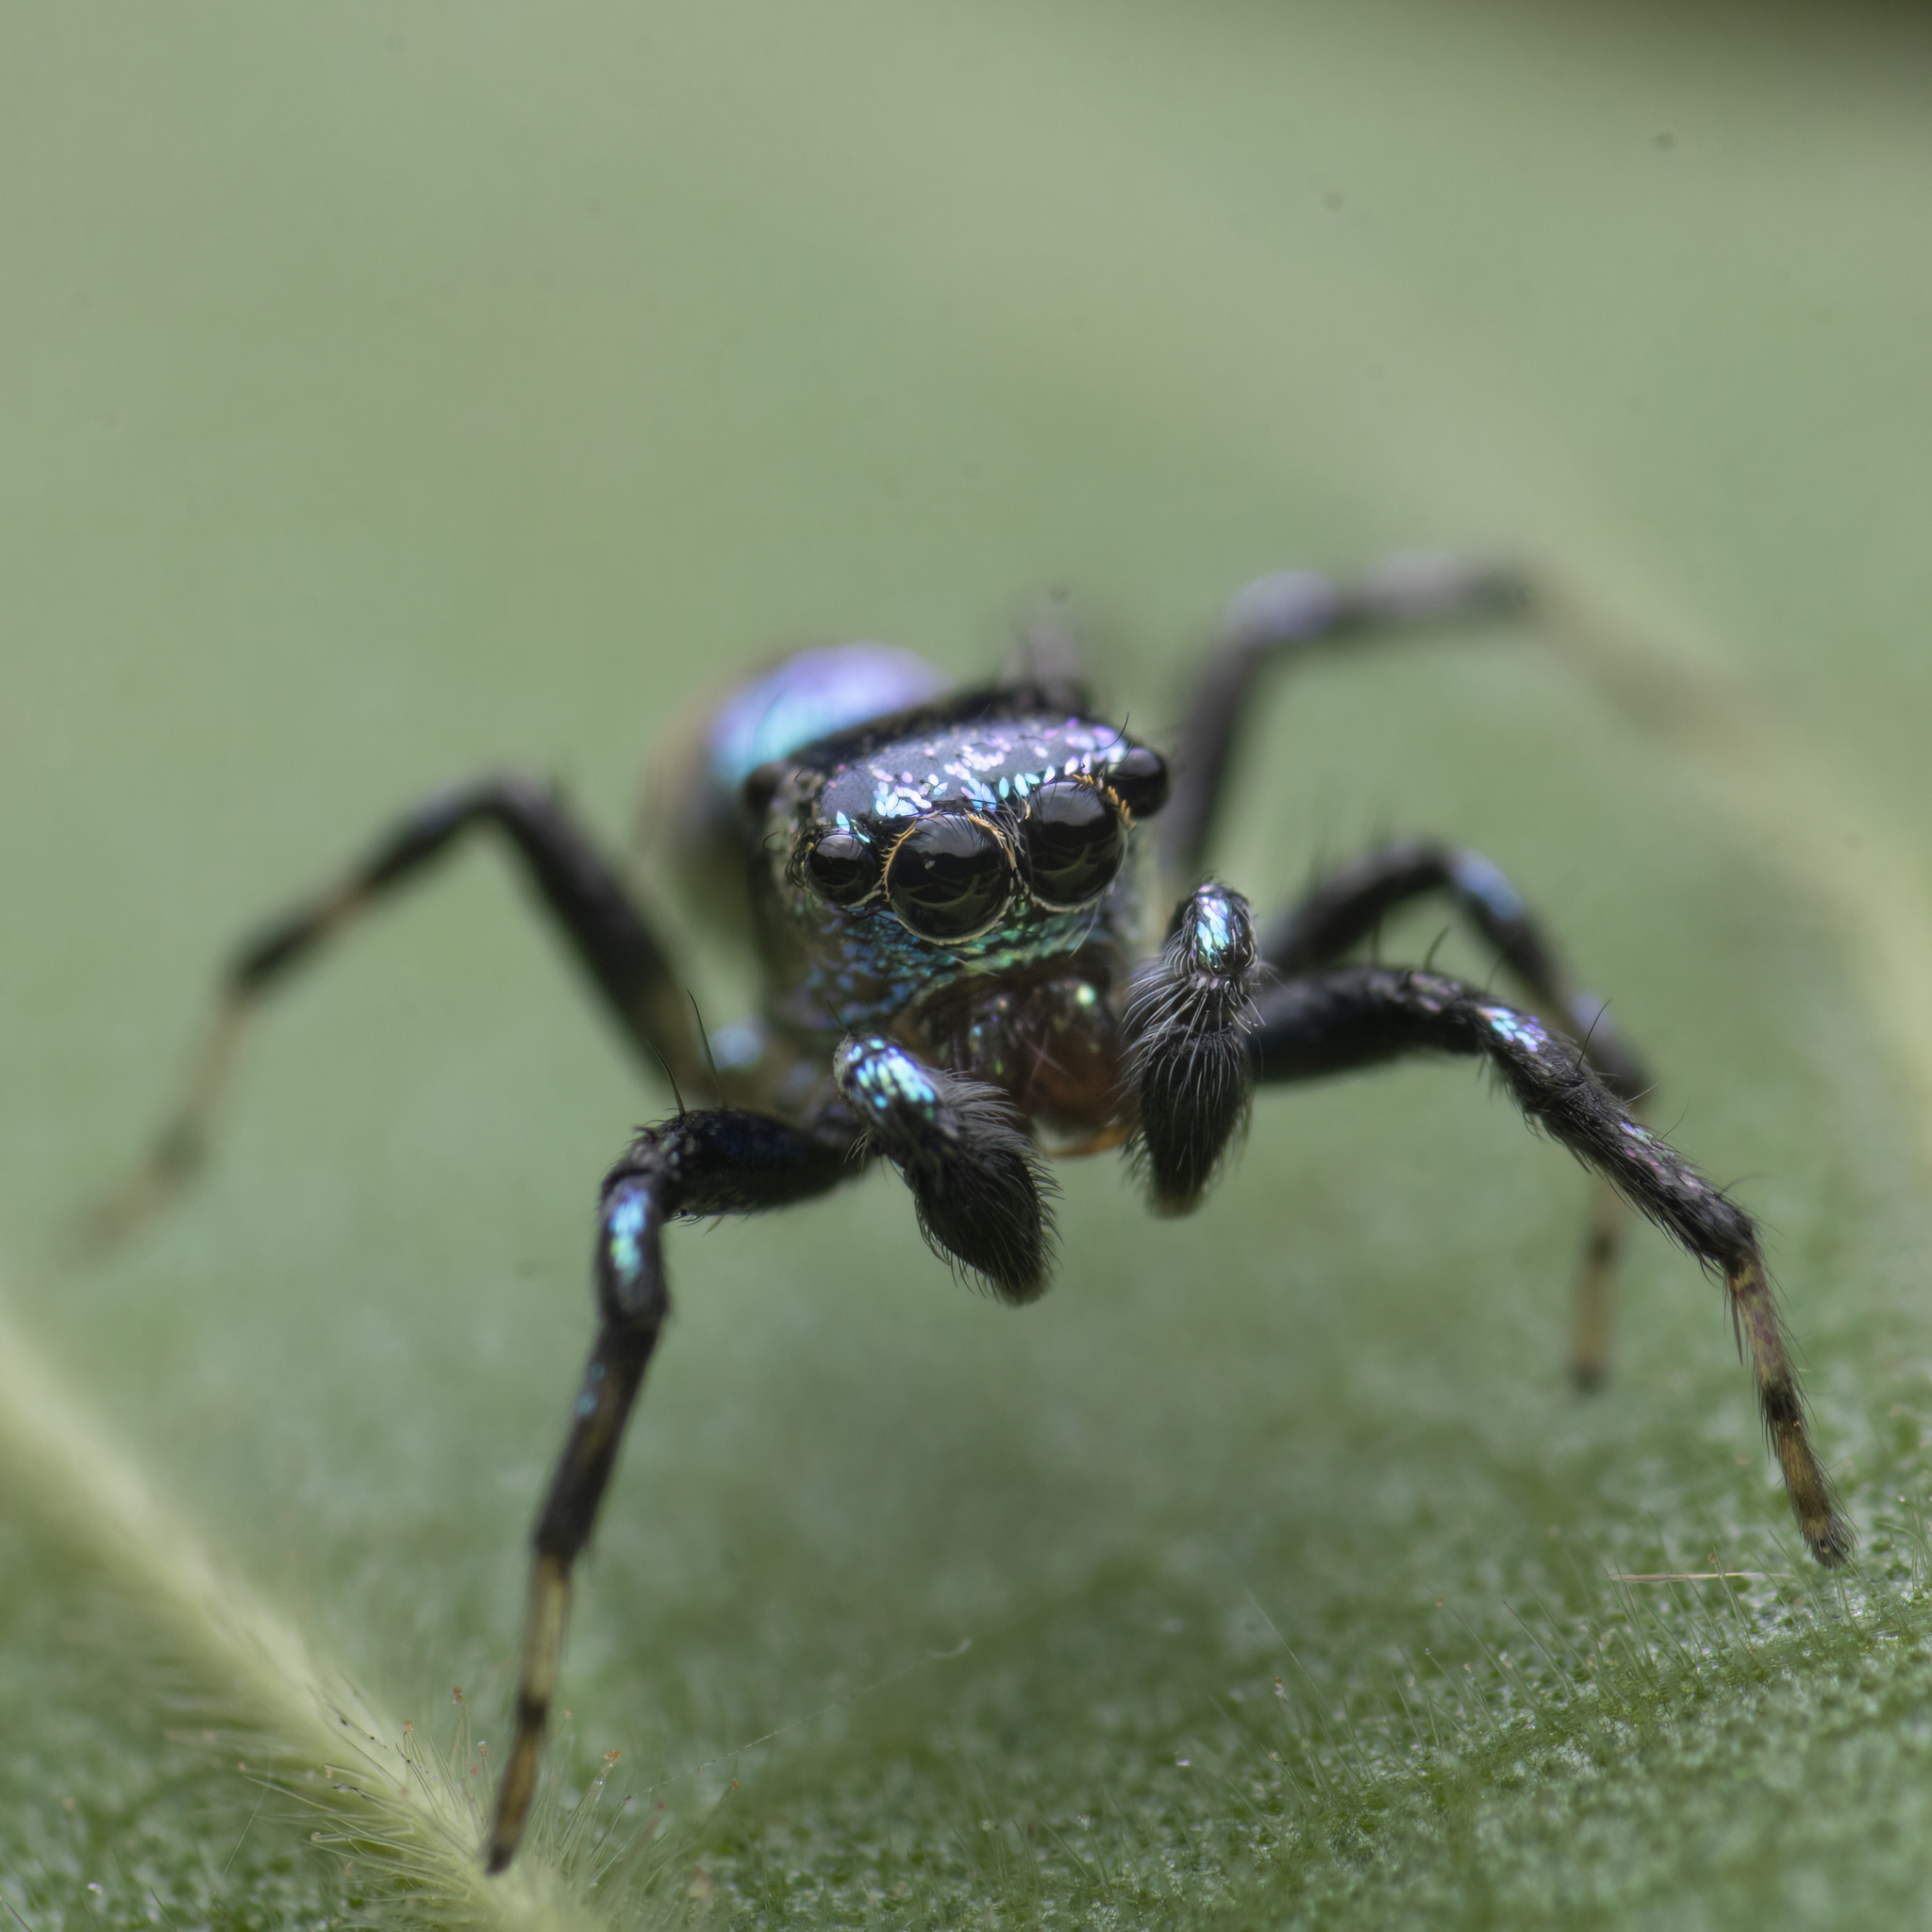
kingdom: Animalia
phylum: Arthropoda
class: Arachnida
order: Araneae
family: Salticidae
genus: Phintella
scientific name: Phintella vittata
